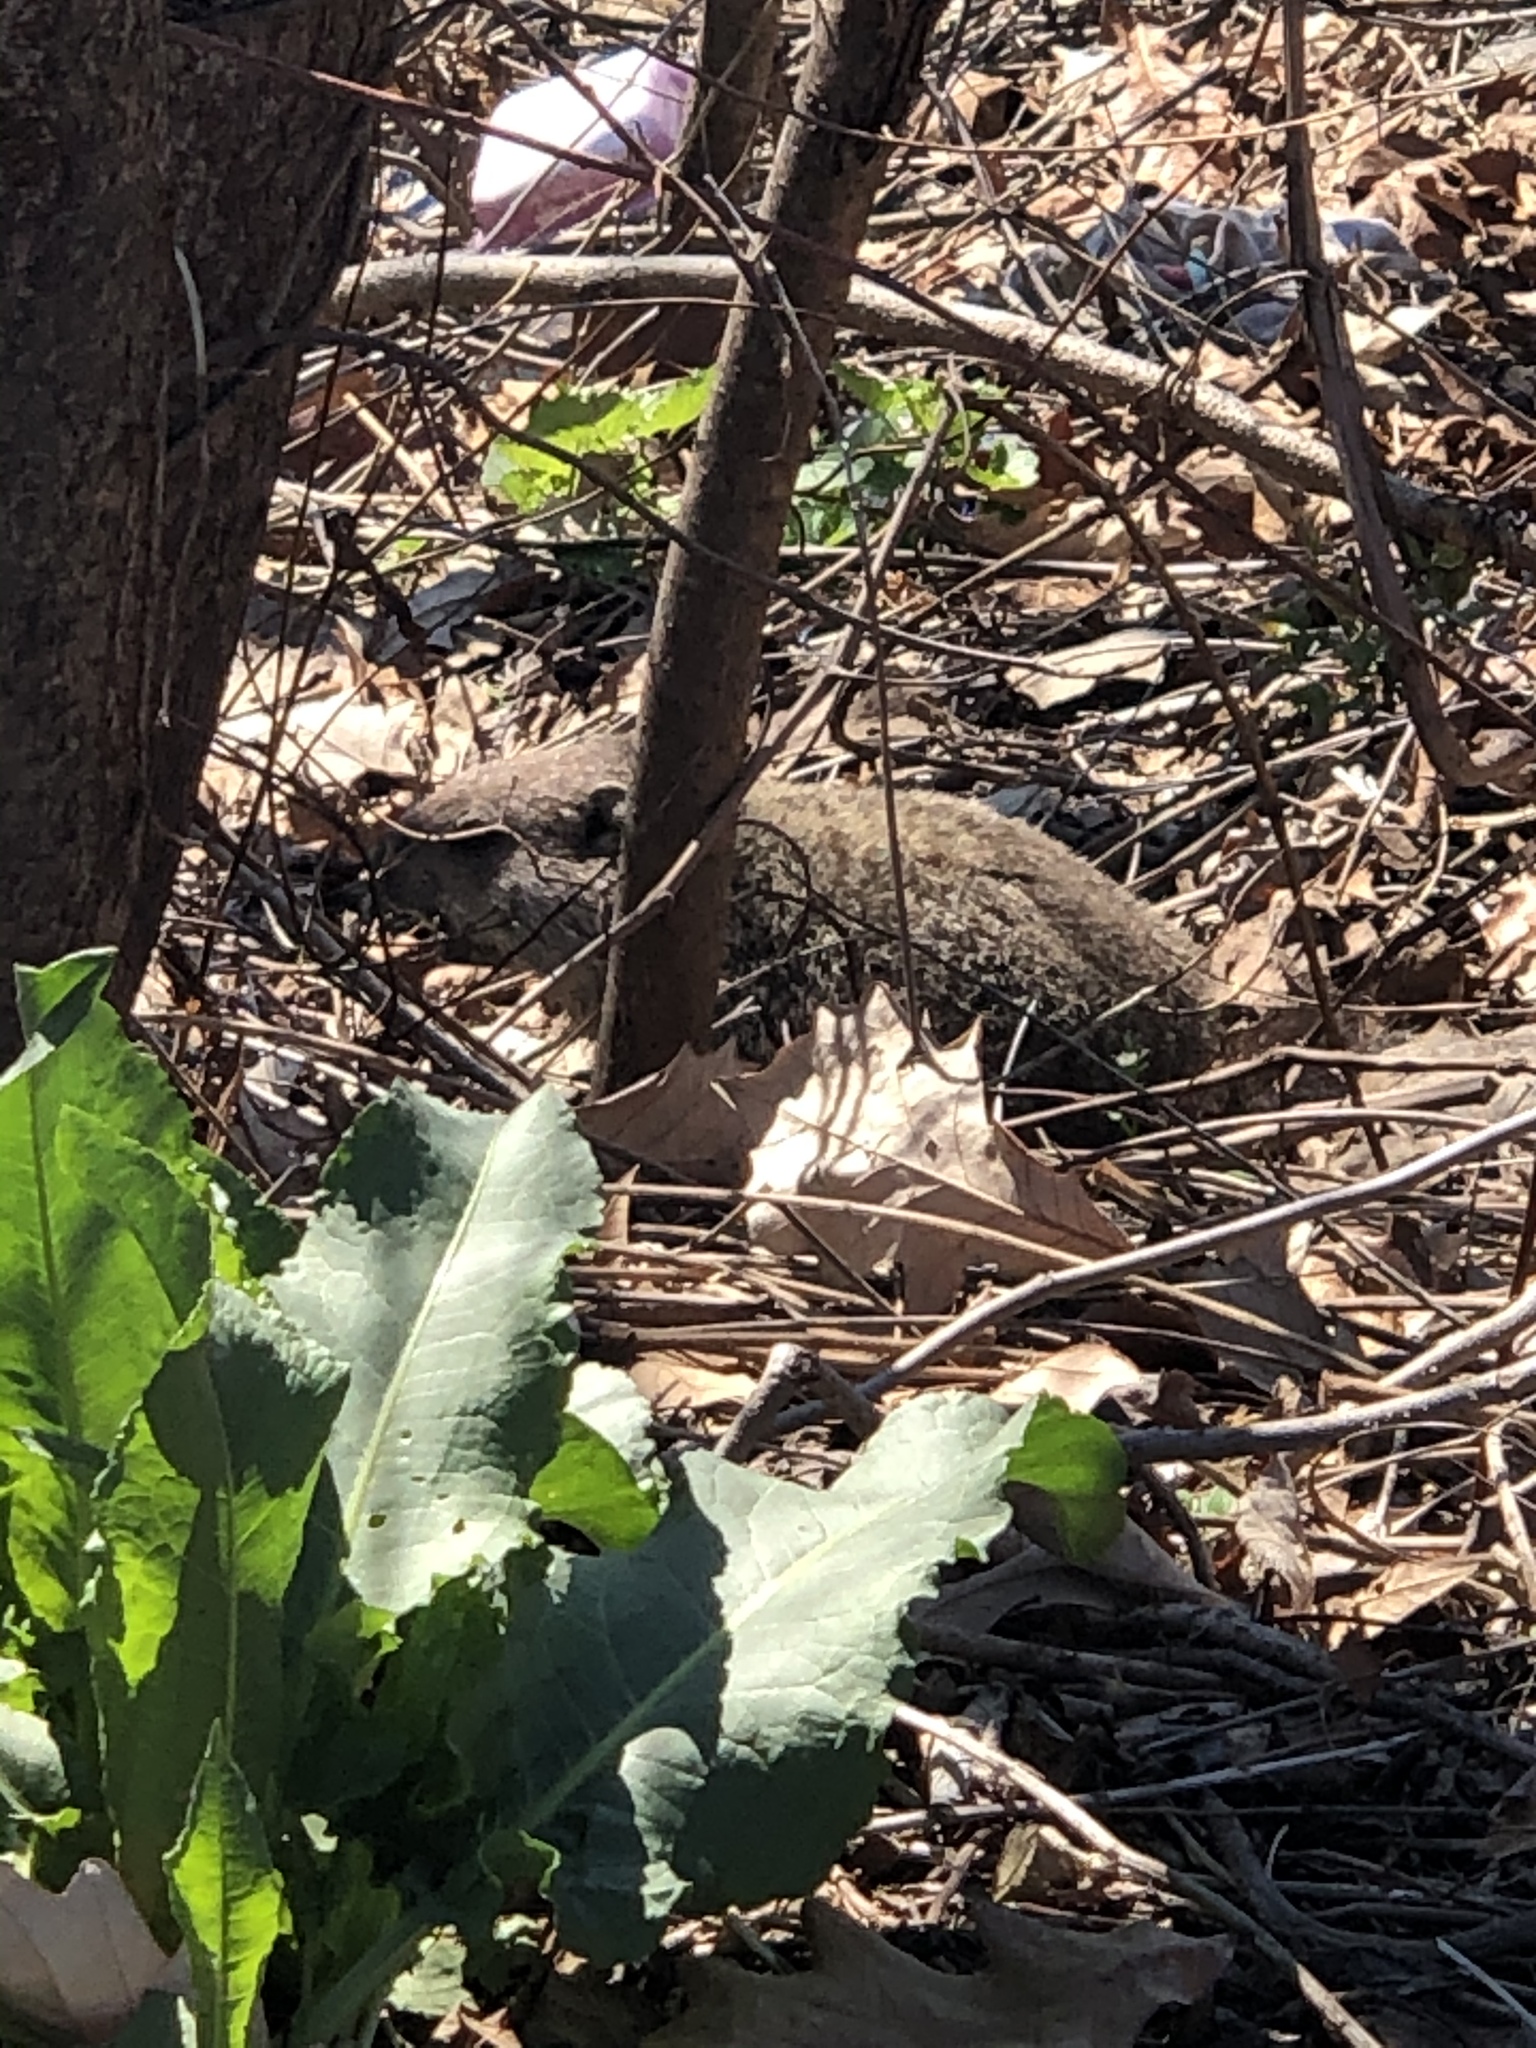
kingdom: Animalia
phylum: Chordata
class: Mammalia
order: Rodentia
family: Sciuridae
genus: Marmota
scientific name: Marmota monax
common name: Groundhog
